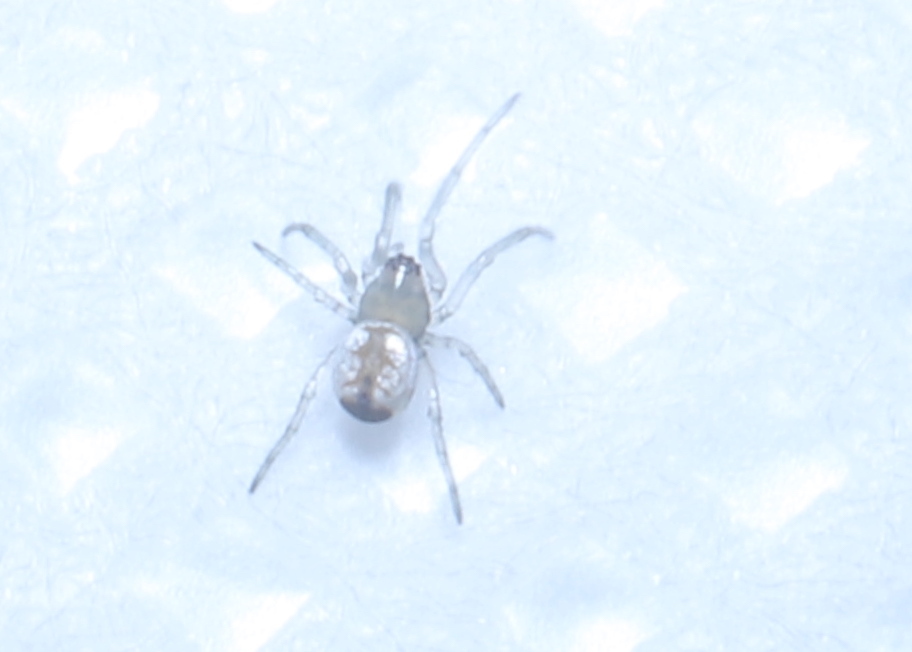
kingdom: Animalia
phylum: Arthropoda
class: Arachnida
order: Araneae
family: Tetragnathidae
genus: Leucauge
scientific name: Leucauge venusta
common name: Longjawed orb weavers
